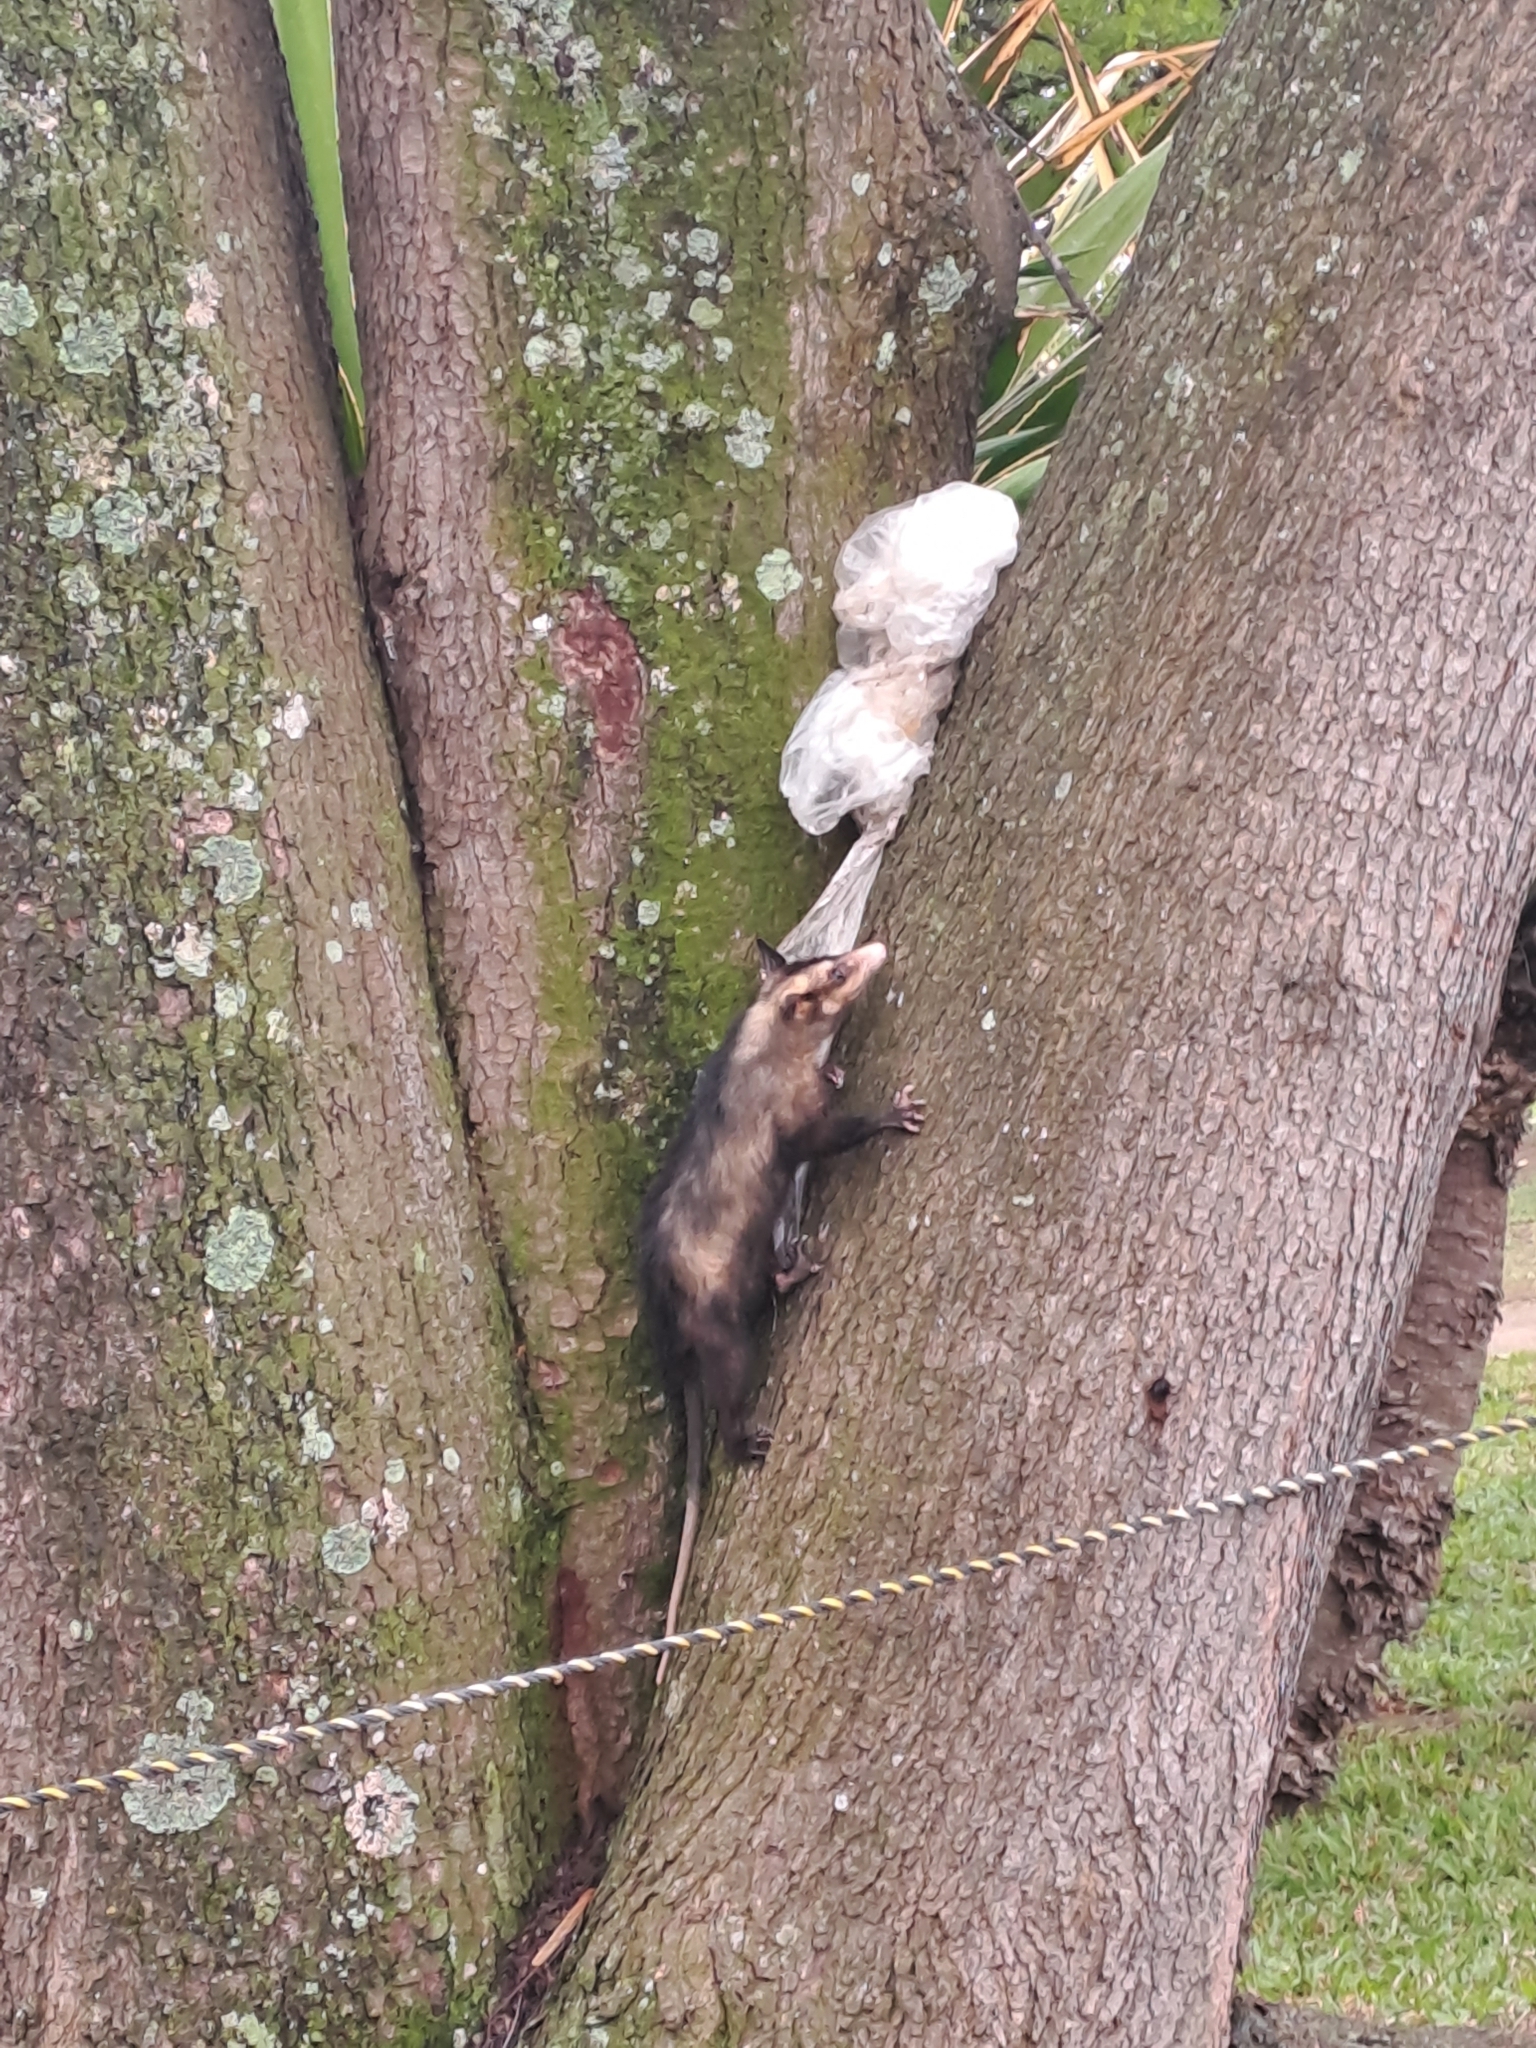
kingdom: Animalia
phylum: Chordata
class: Mammalia
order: Didelphimorphia
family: Didelphidae
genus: Didelphis
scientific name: Didelphis aurita
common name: Big-eared opossum
